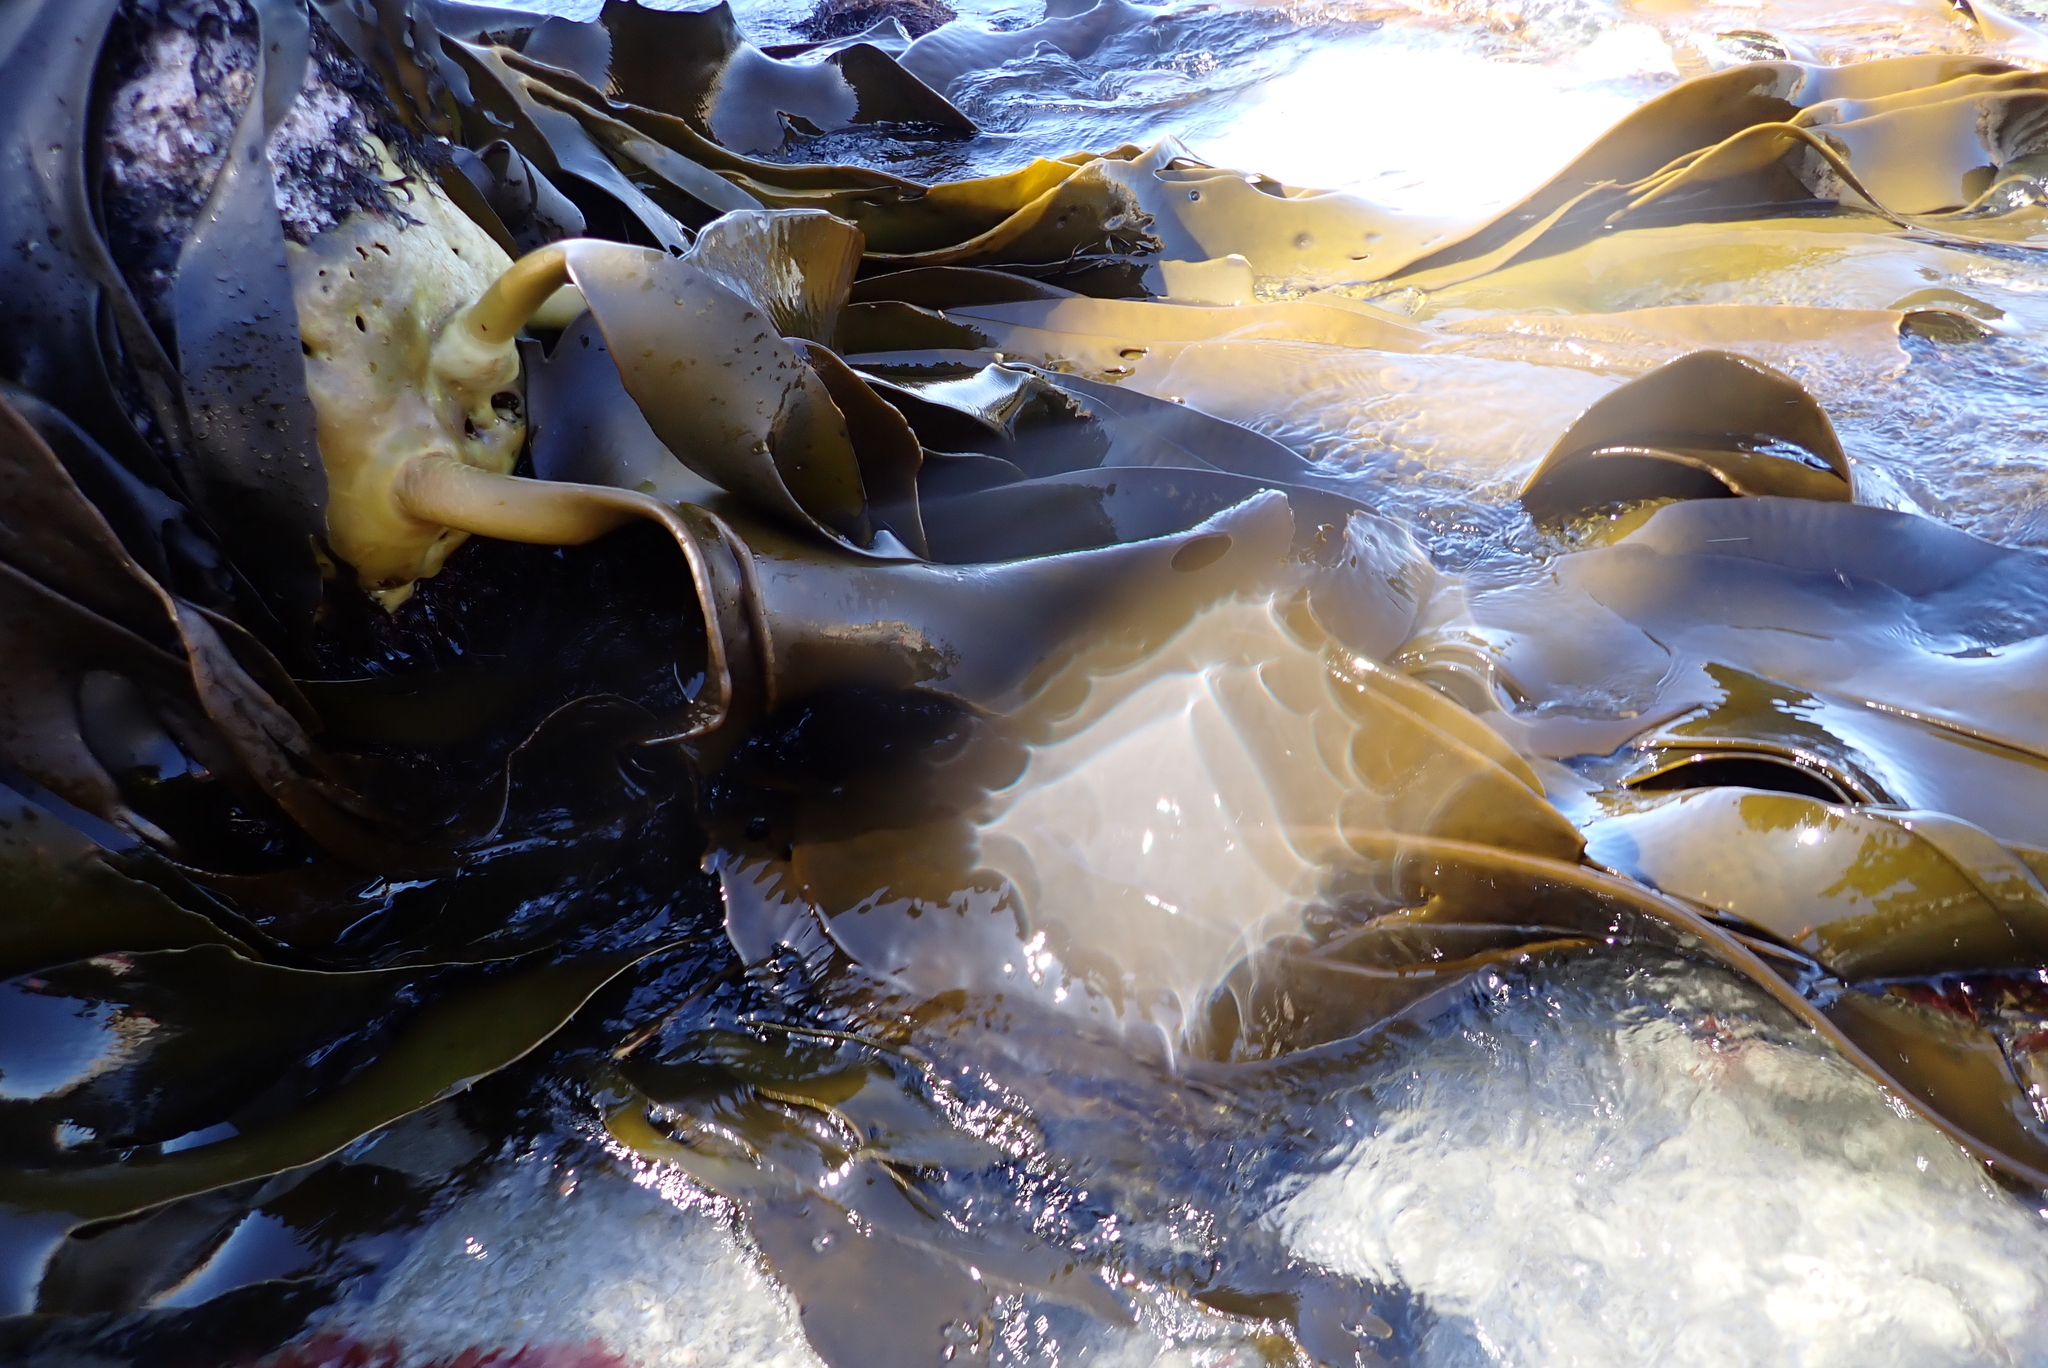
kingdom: Chromista
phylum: Ochrophyta
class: Phaeophyceae
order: Fucales
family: Durvillaeaceae
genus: Durvillaea
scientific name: Durvillaea antarctica
